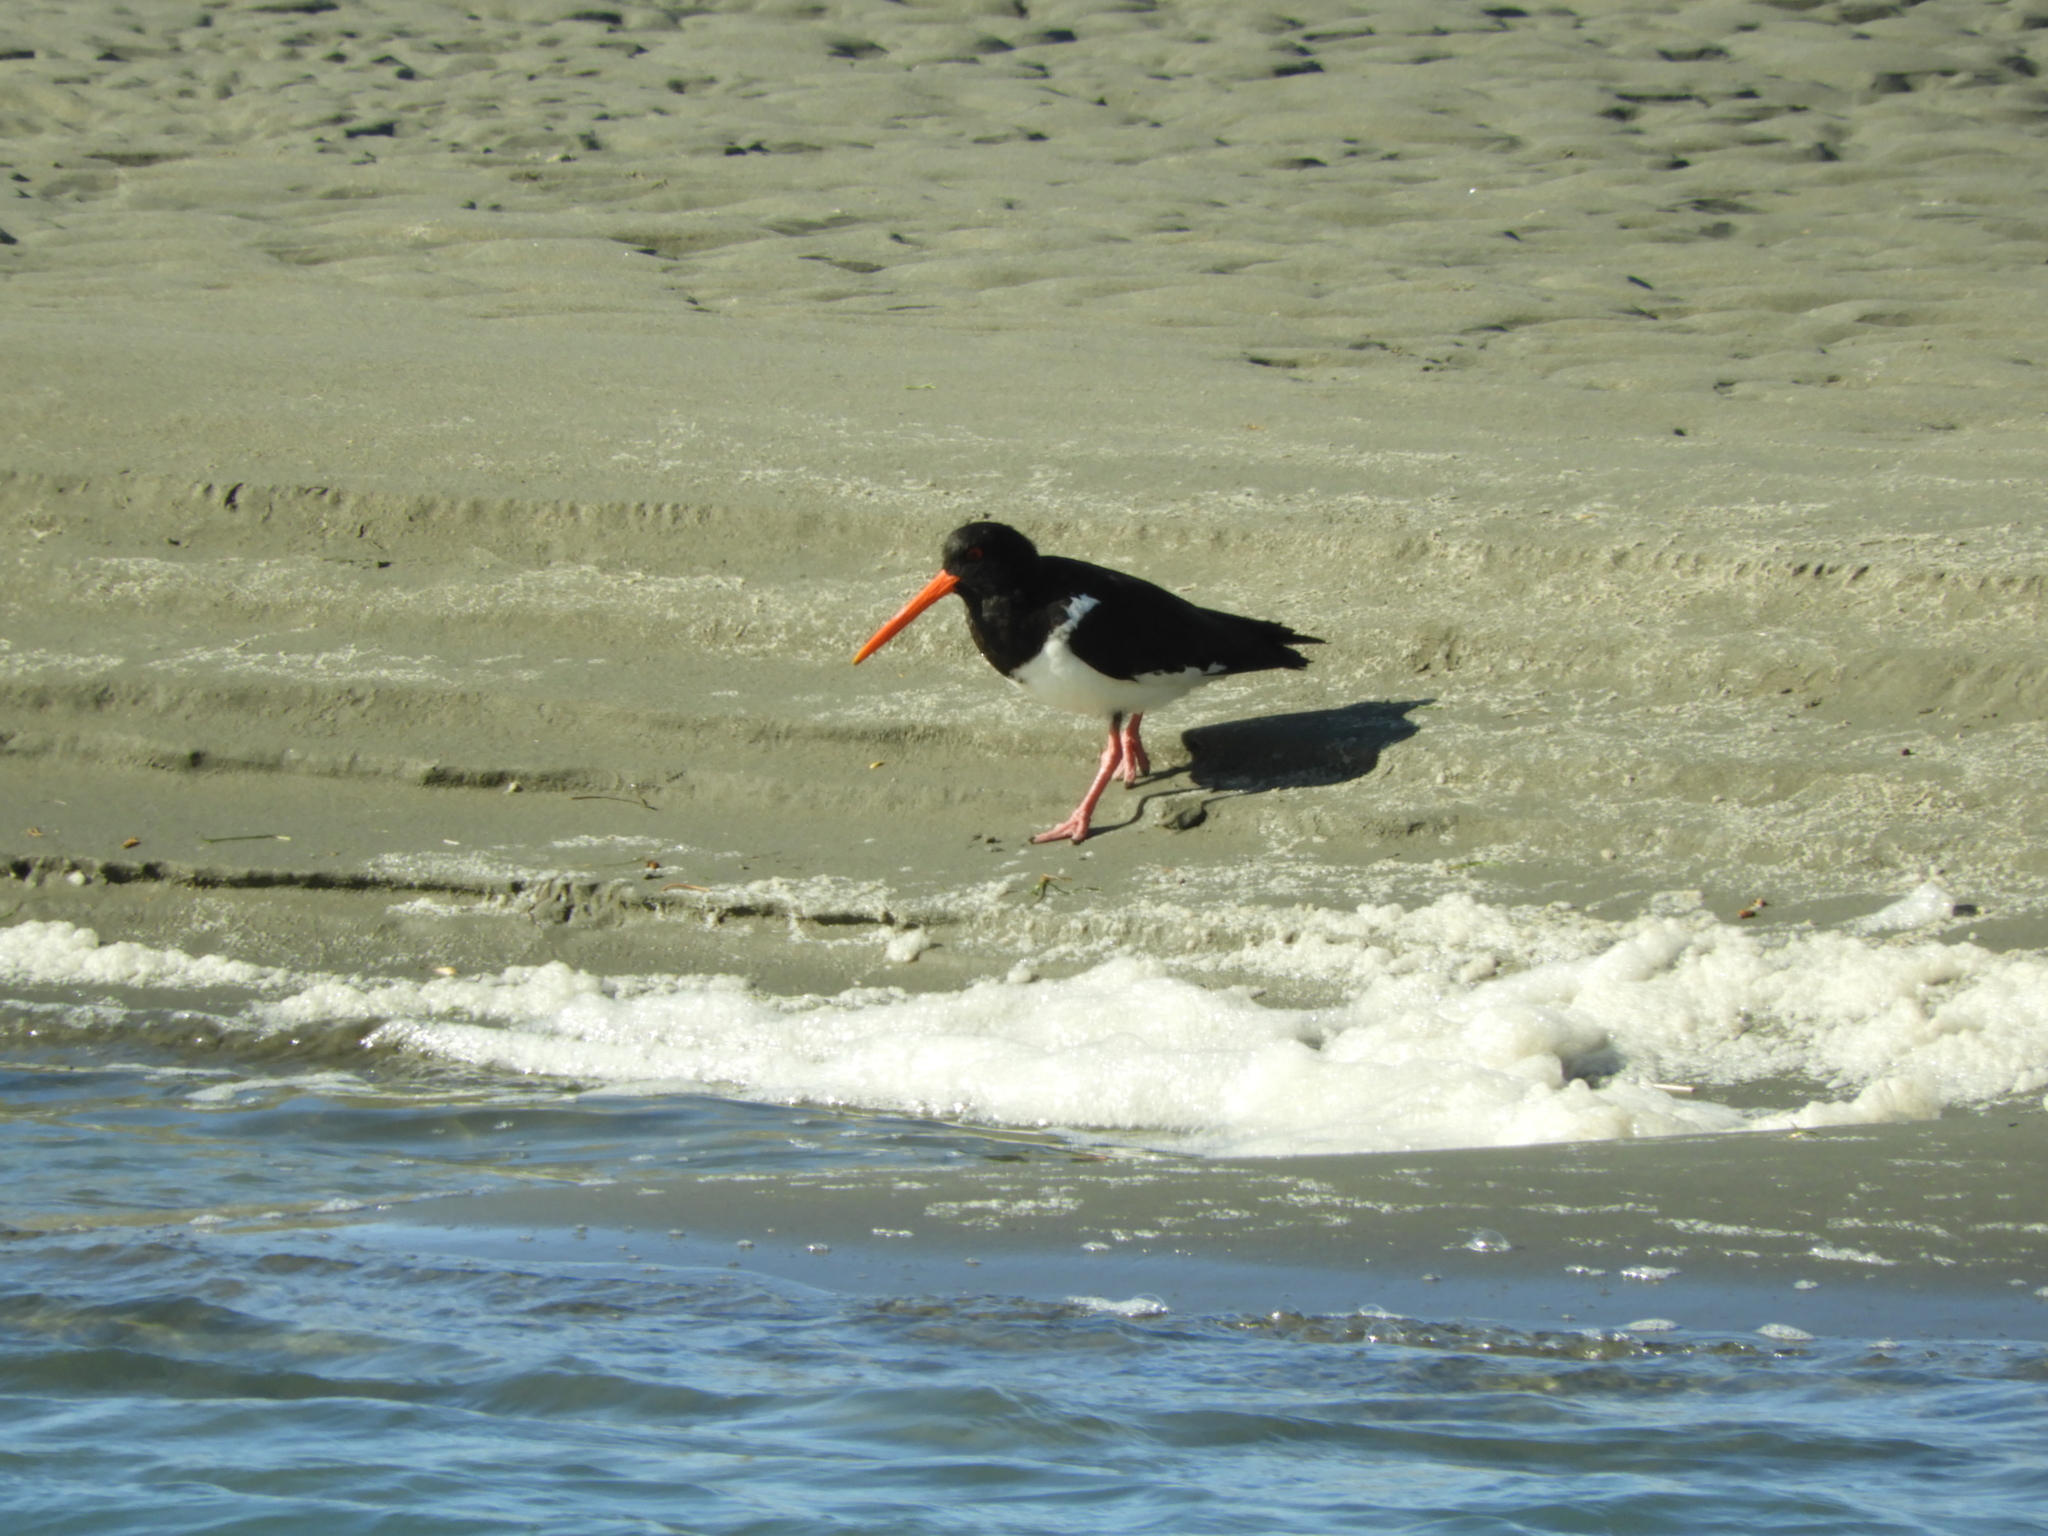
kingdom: Animalia
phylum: Chordata
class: Aves
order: Charadriiformes
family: Haematopodidae
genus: Haematopus
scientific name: Haematopus finschi
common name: South island oystercatcher
